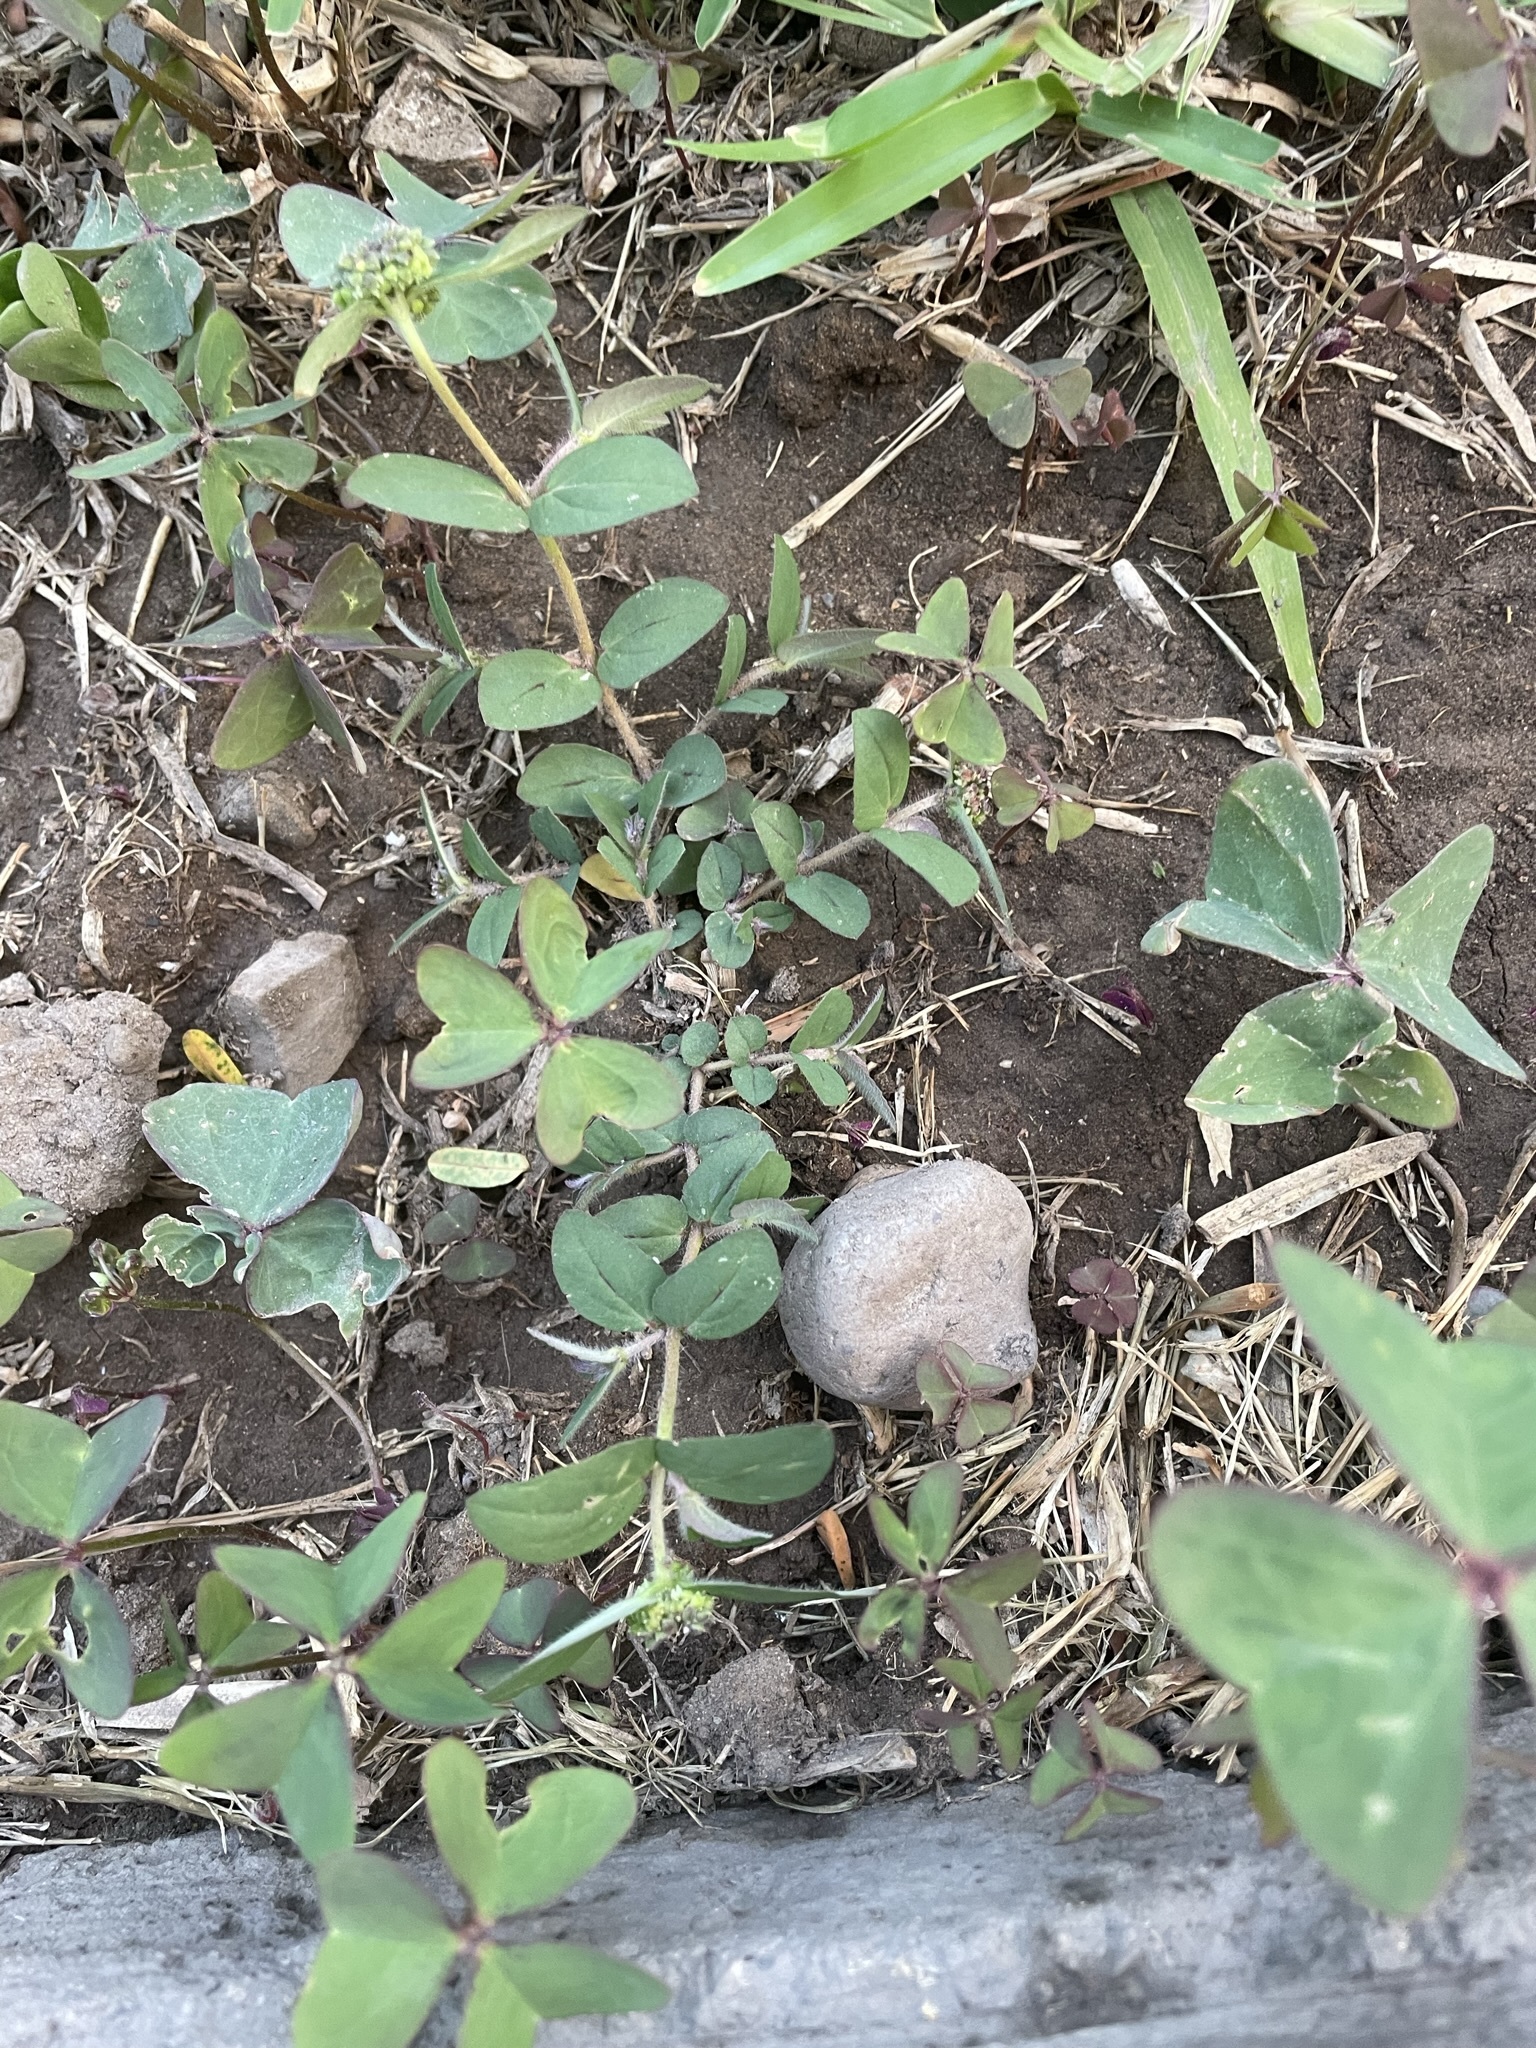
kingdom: Plantae
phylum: Tracheophyta
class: Magnoliopsida
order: Malpighiales
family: Euphorbiaceae
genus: Euphorbia
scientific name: Euphorbia ophthalmica
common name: Florida hammock sandmat
